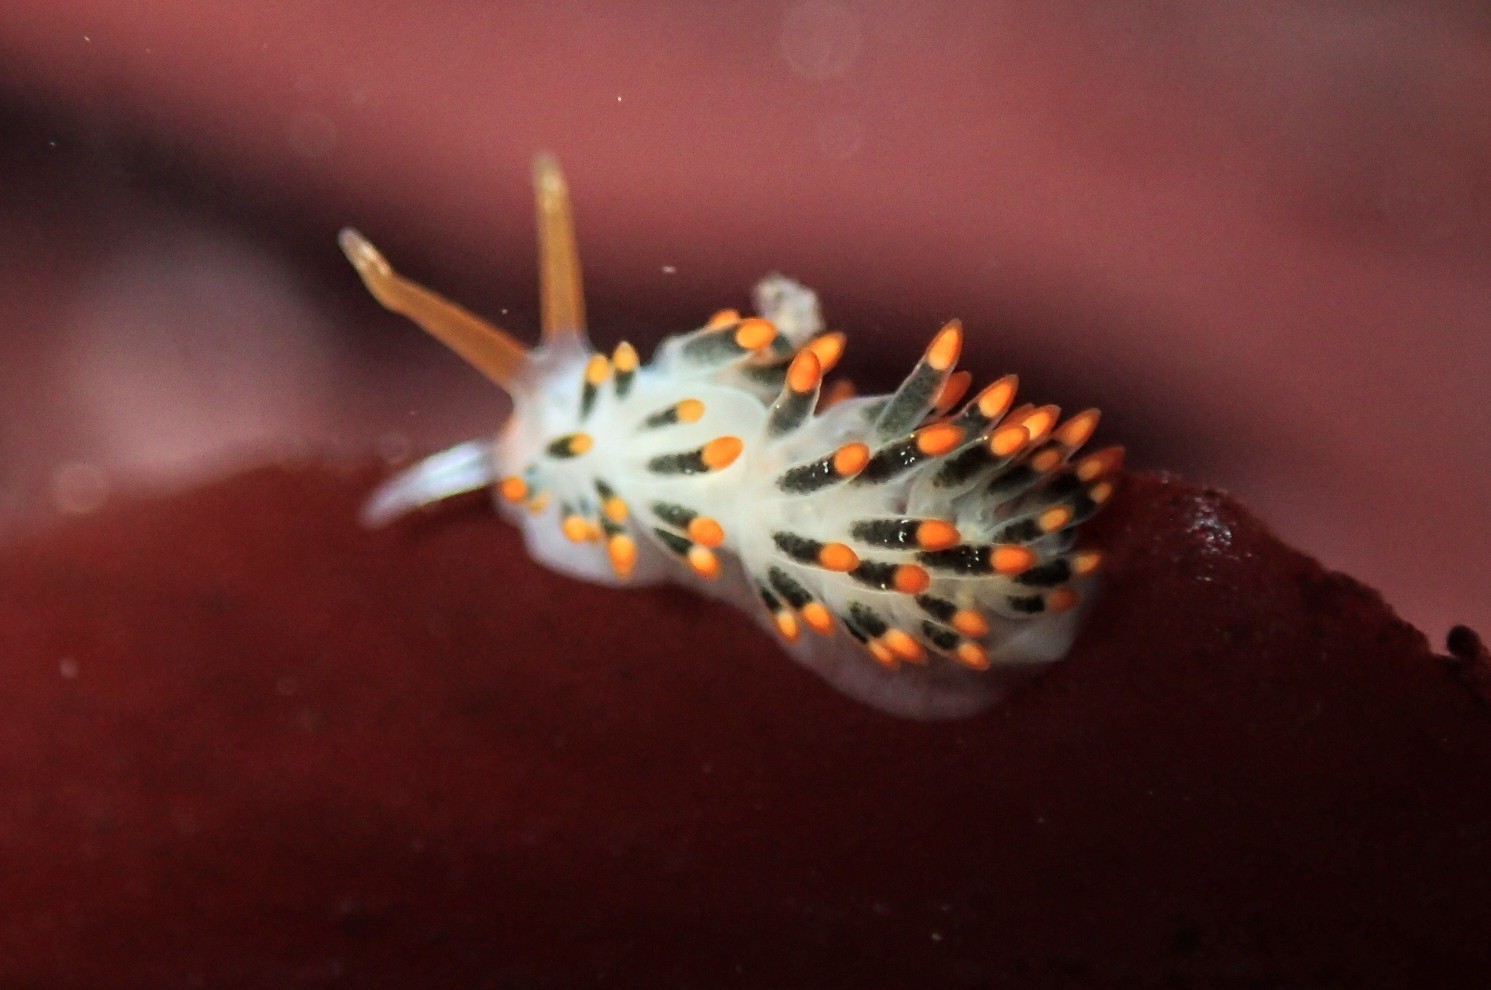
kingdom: Animalia
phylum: Mollusca
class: Gastropoda
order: Nudibranchia
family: Trinchesiidae
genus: Diaphoreolis
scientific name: Diaphoreolis lagunae
